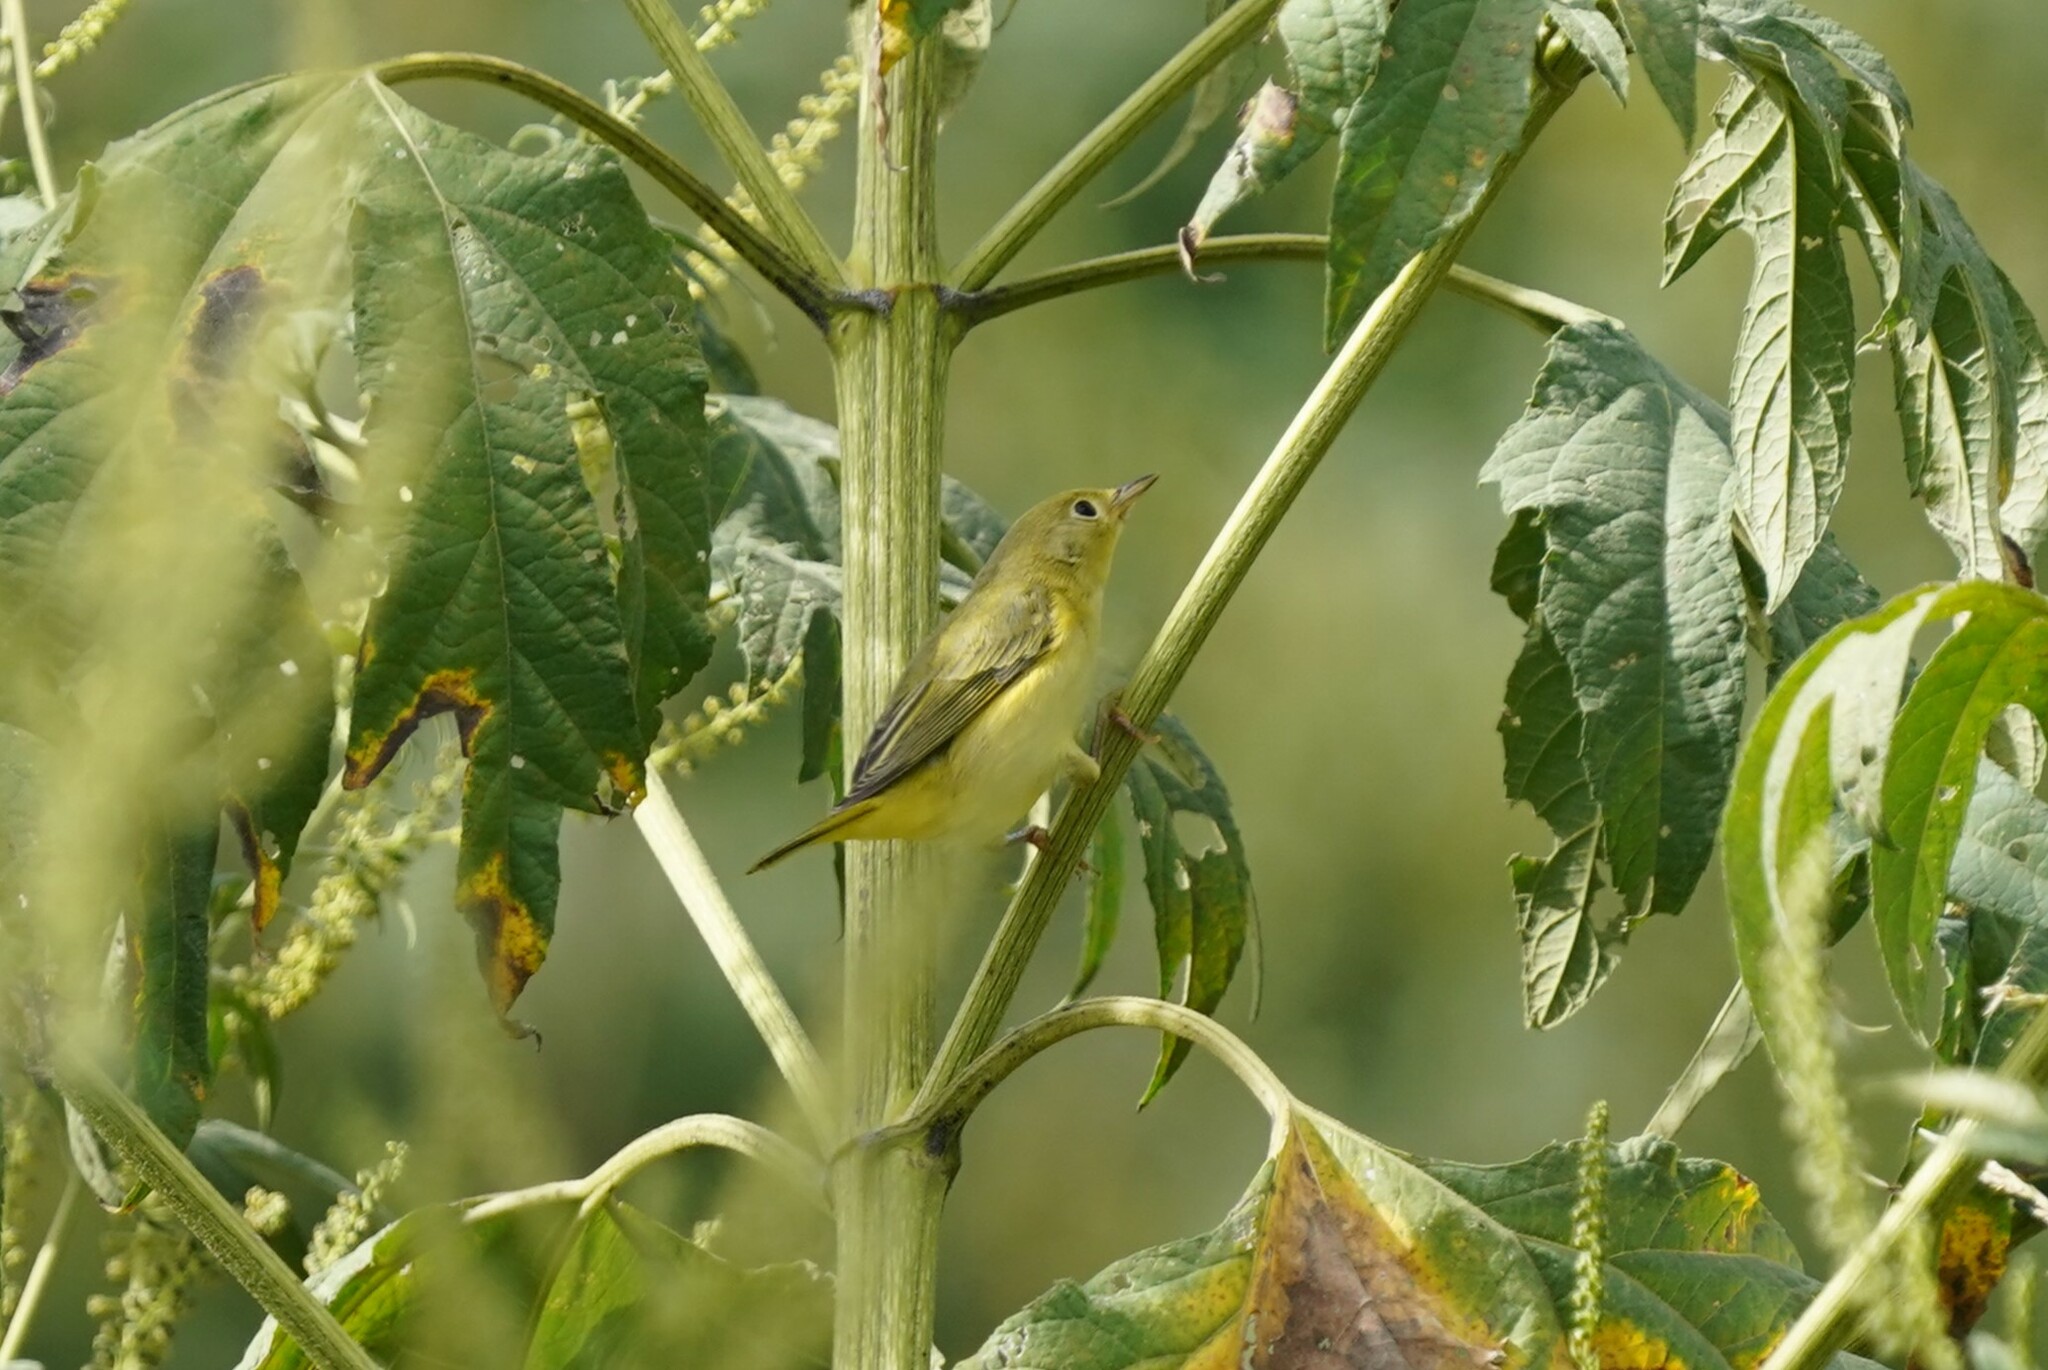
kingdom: Animalia
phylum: Chordata
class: Aves
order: Passeriformes
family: Parulidae
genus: Setophaga
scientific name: Setophaga petechia
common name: Yellow warbler
